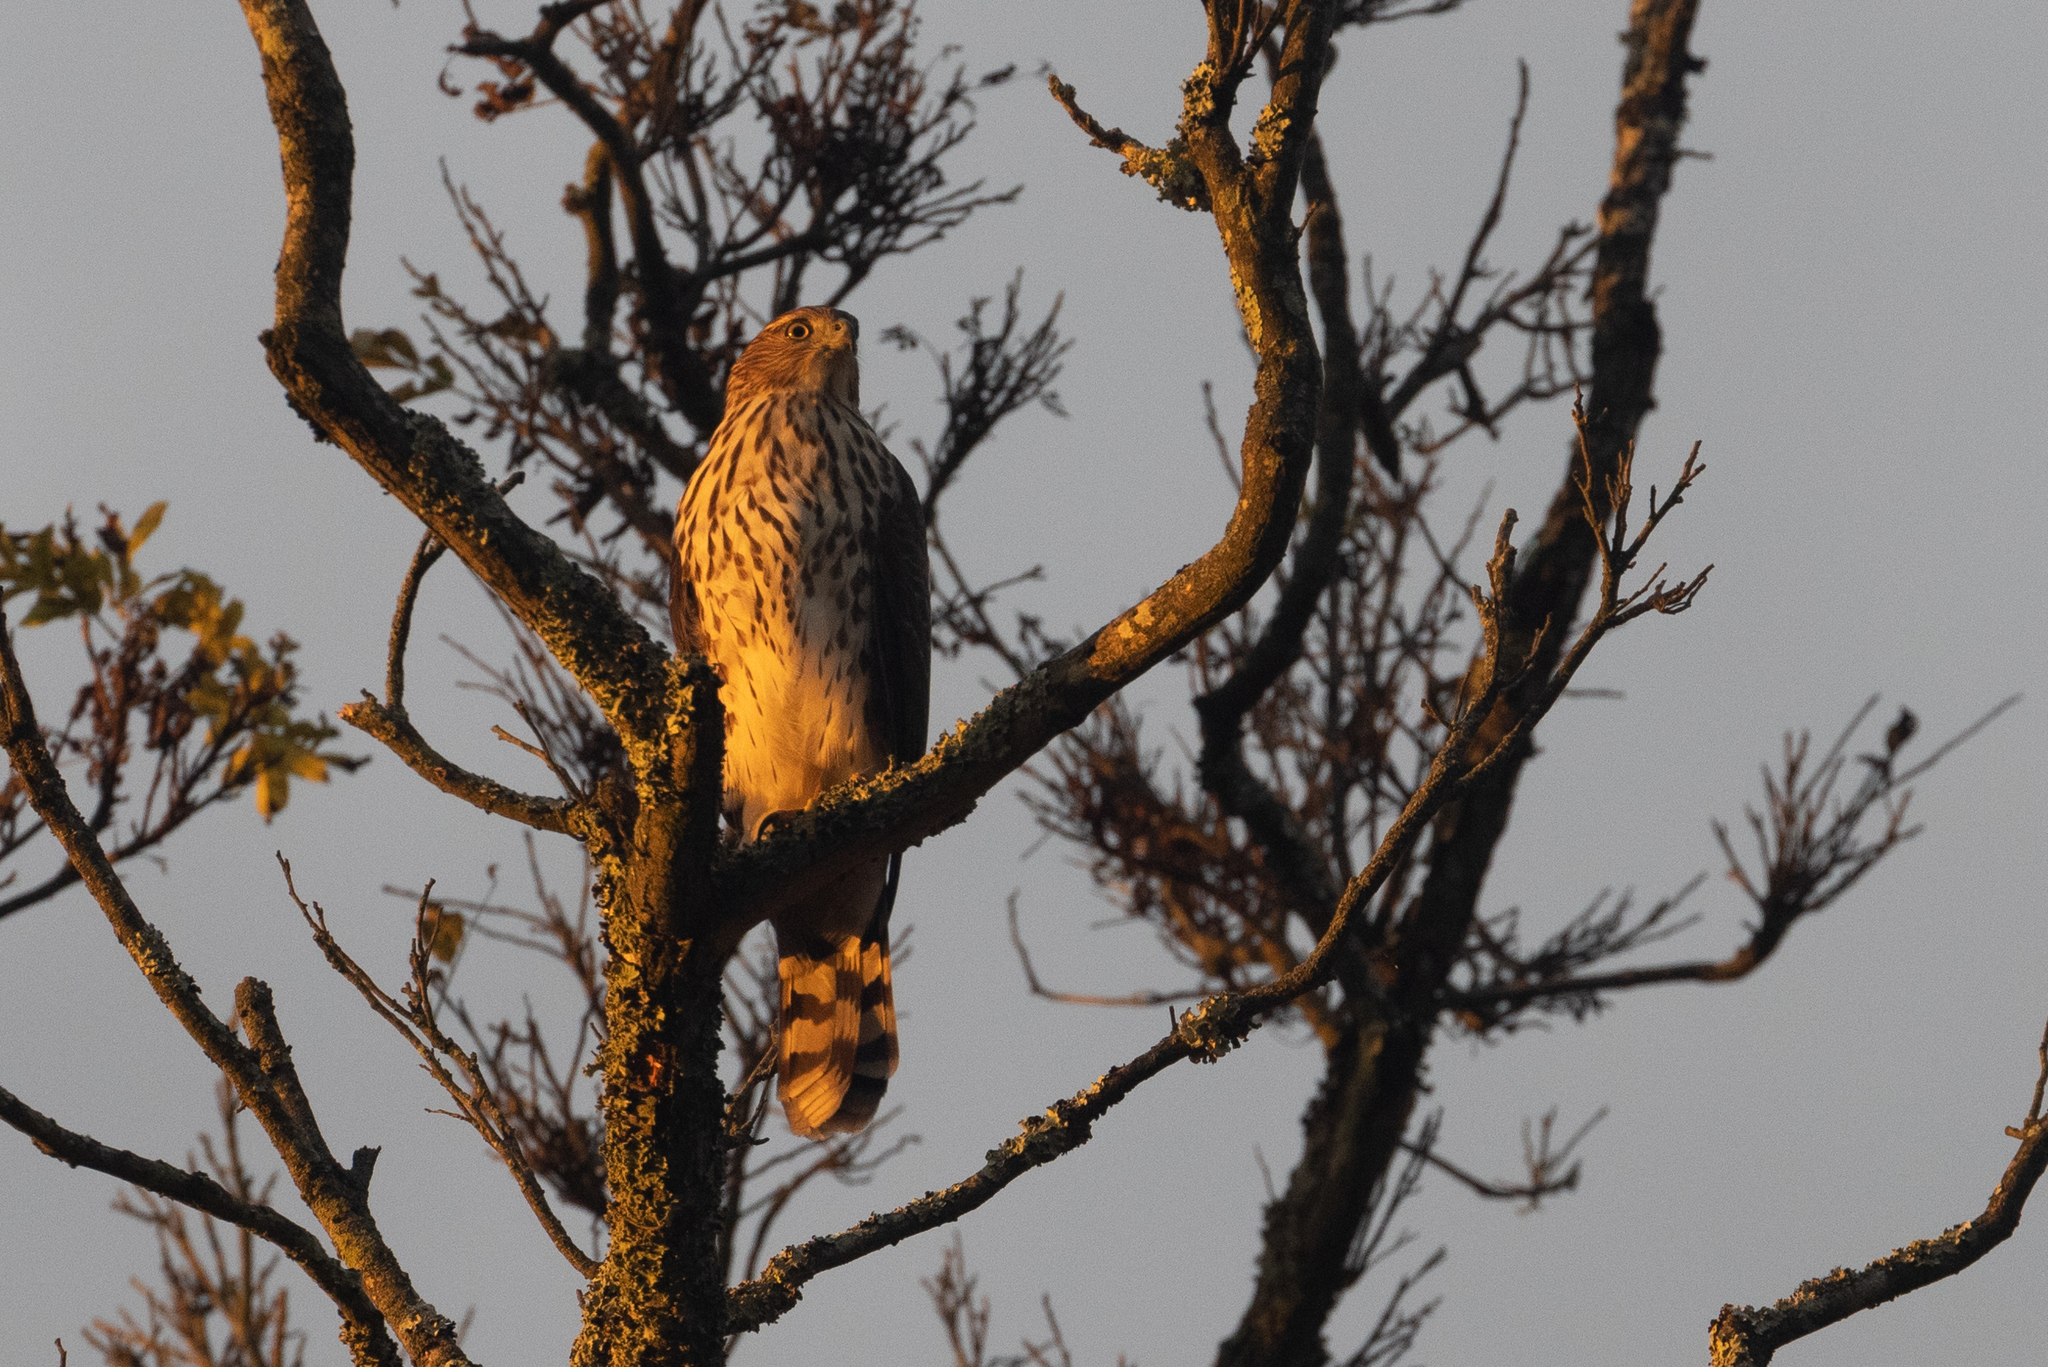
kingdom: Animalia
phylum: Chordata
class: Aves
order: Accipitriformes
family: Accipitridae
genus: Accipiter
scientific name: Accipiter cooperii
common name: Cooper's hawk
